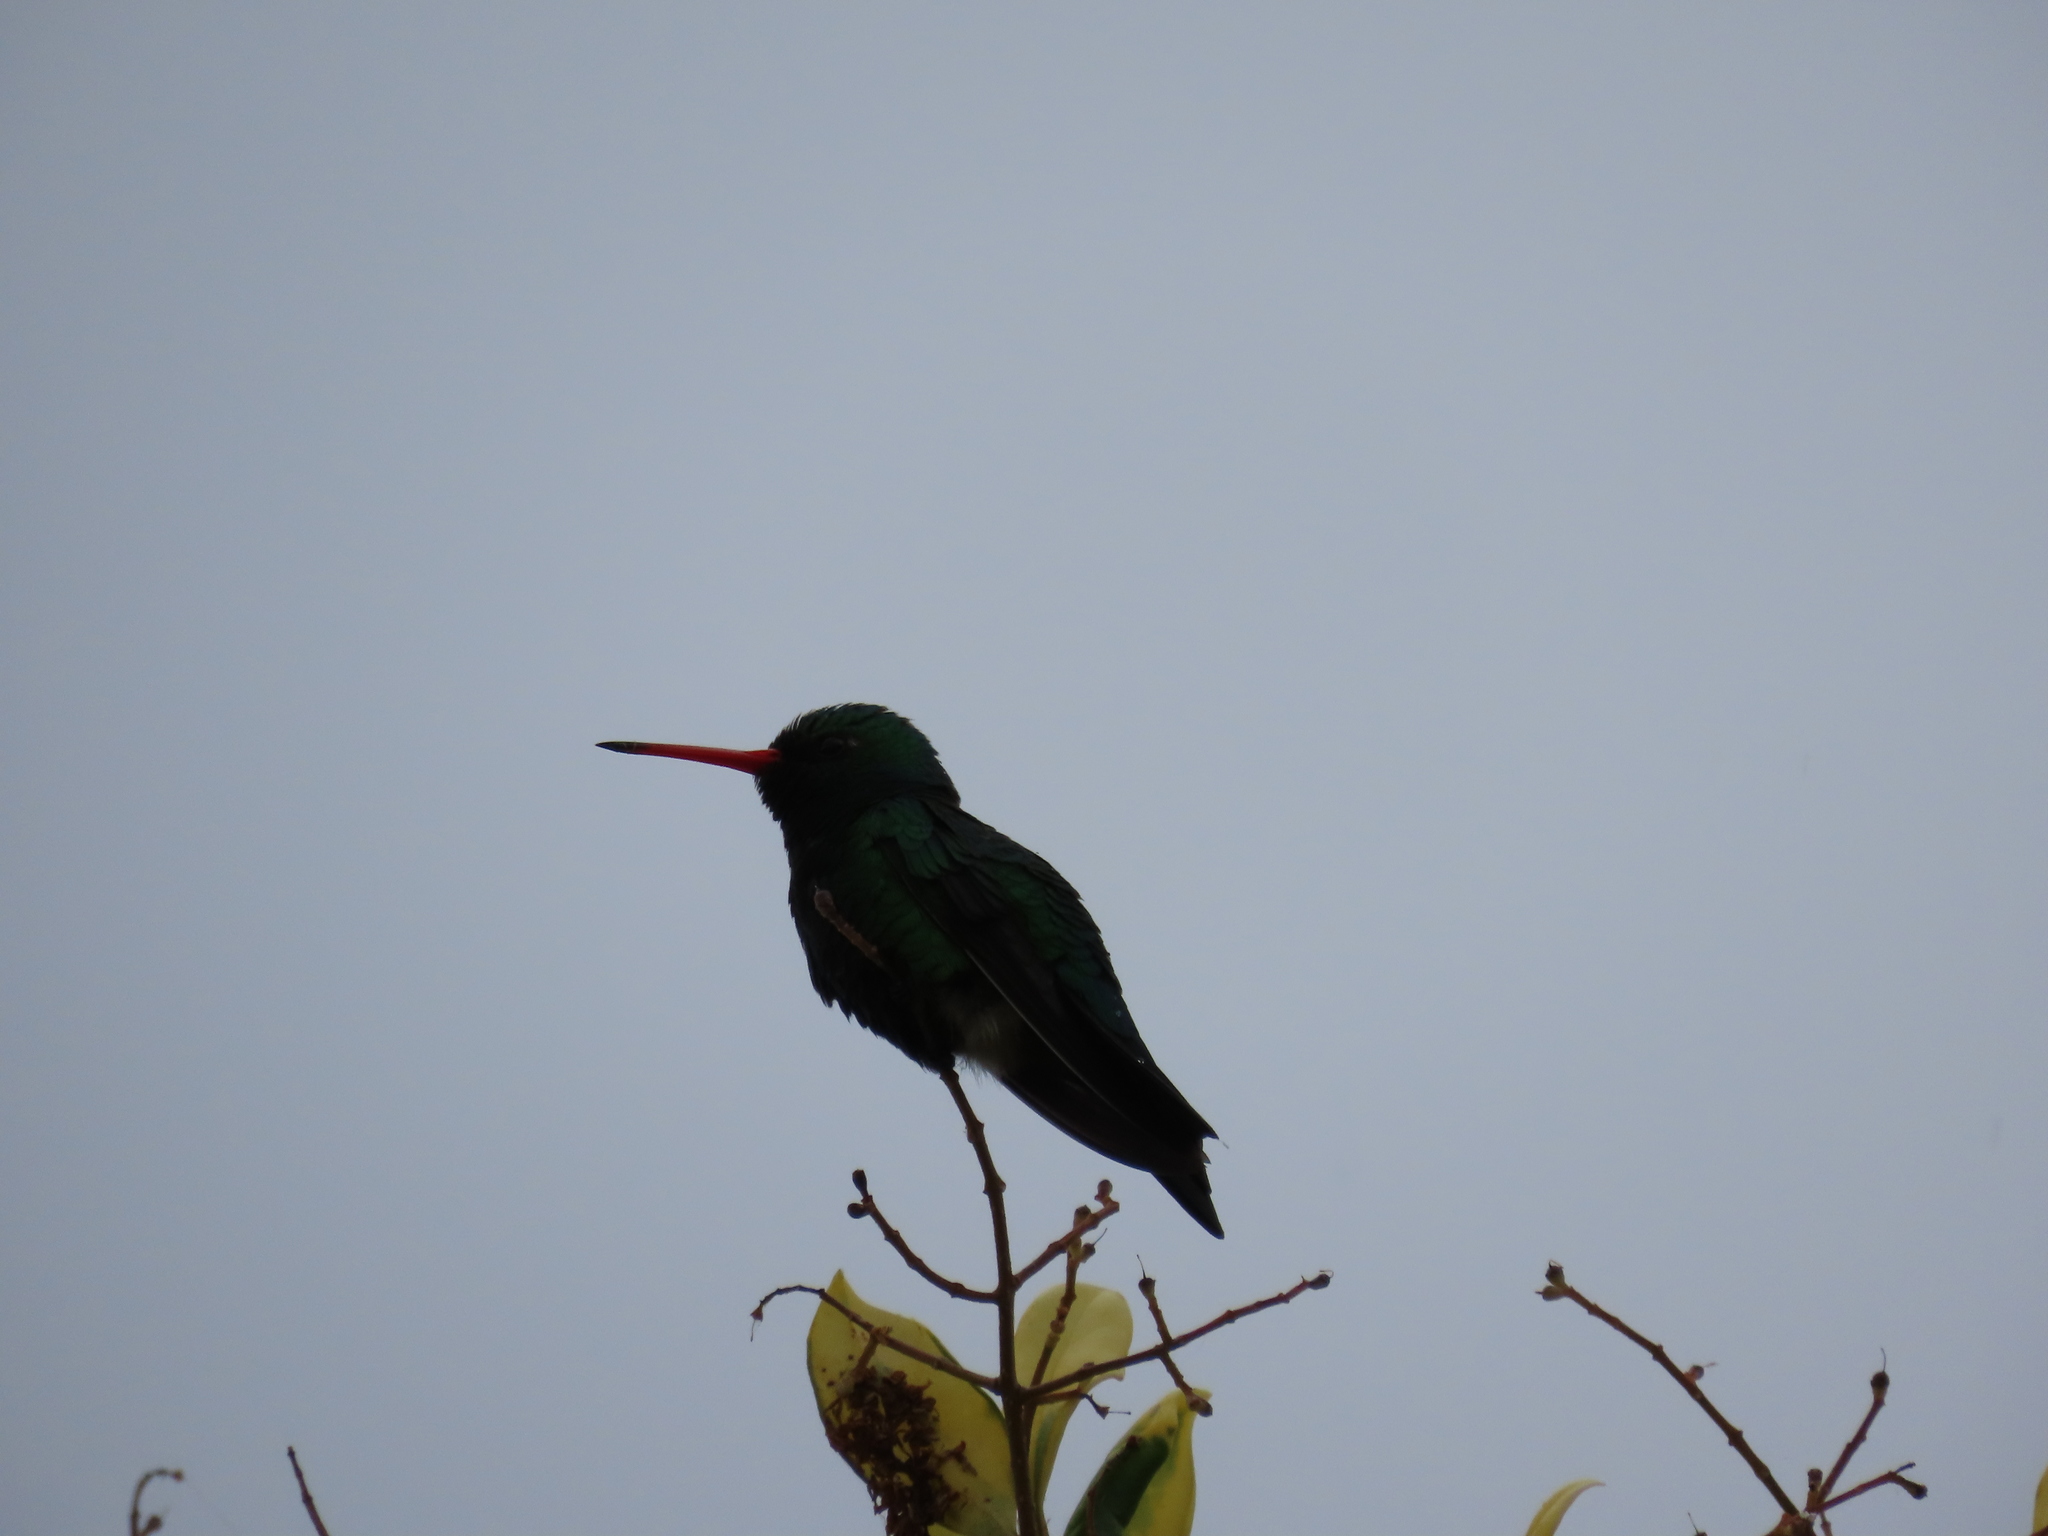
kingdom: Animalia
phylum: Chordata
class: Aves
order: Apodiformes
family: Trochilidae
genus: Chlorostilbon
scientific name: Chlorostilbon lucidus
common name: Glittering-bellied emerald
